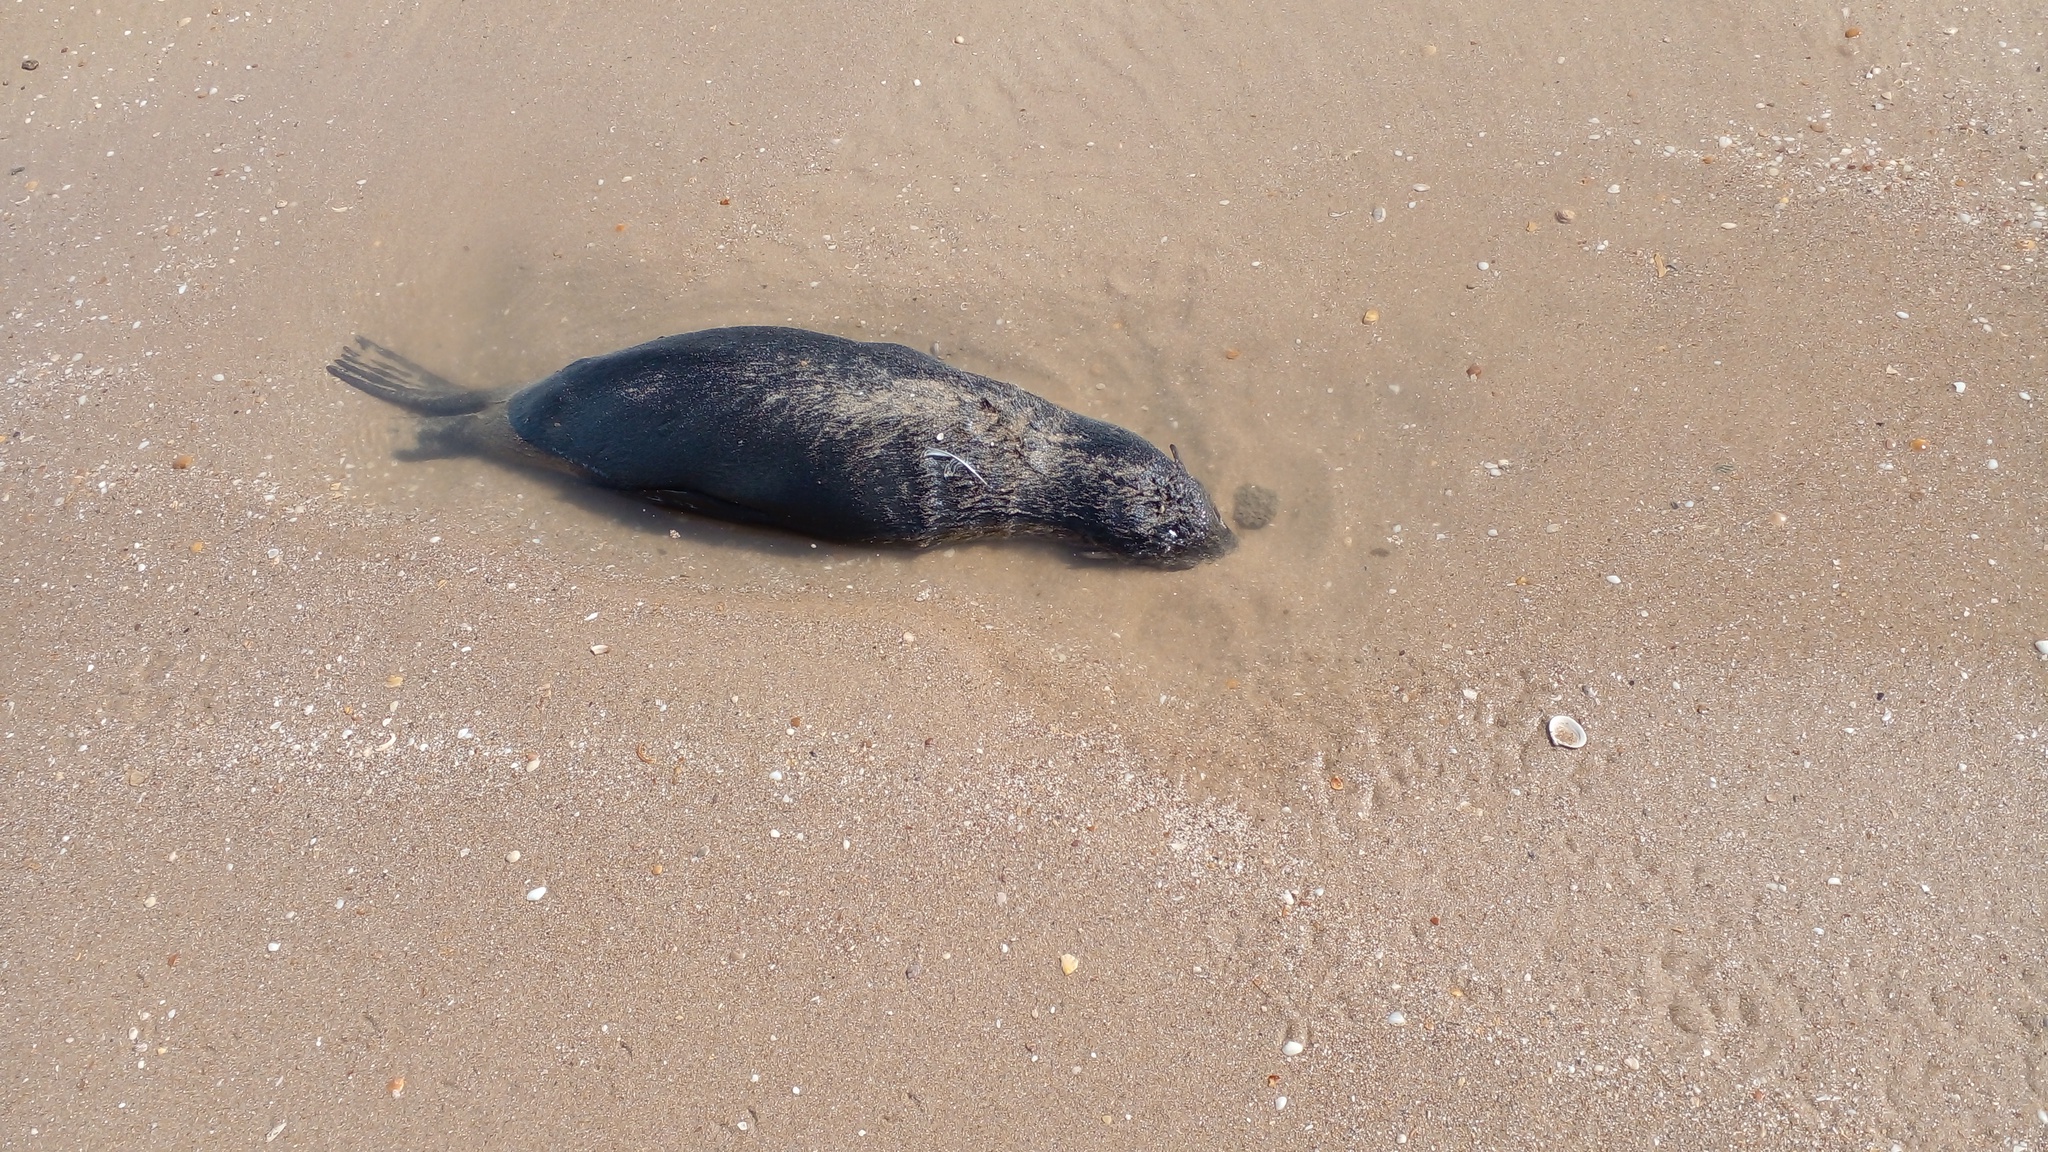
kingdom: Animalia
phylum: Chordata
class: Mammalia
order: Carnivora
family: Otariidae
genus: Arctocephalus
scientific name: Arctocephalus australis
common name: South american fur seal
